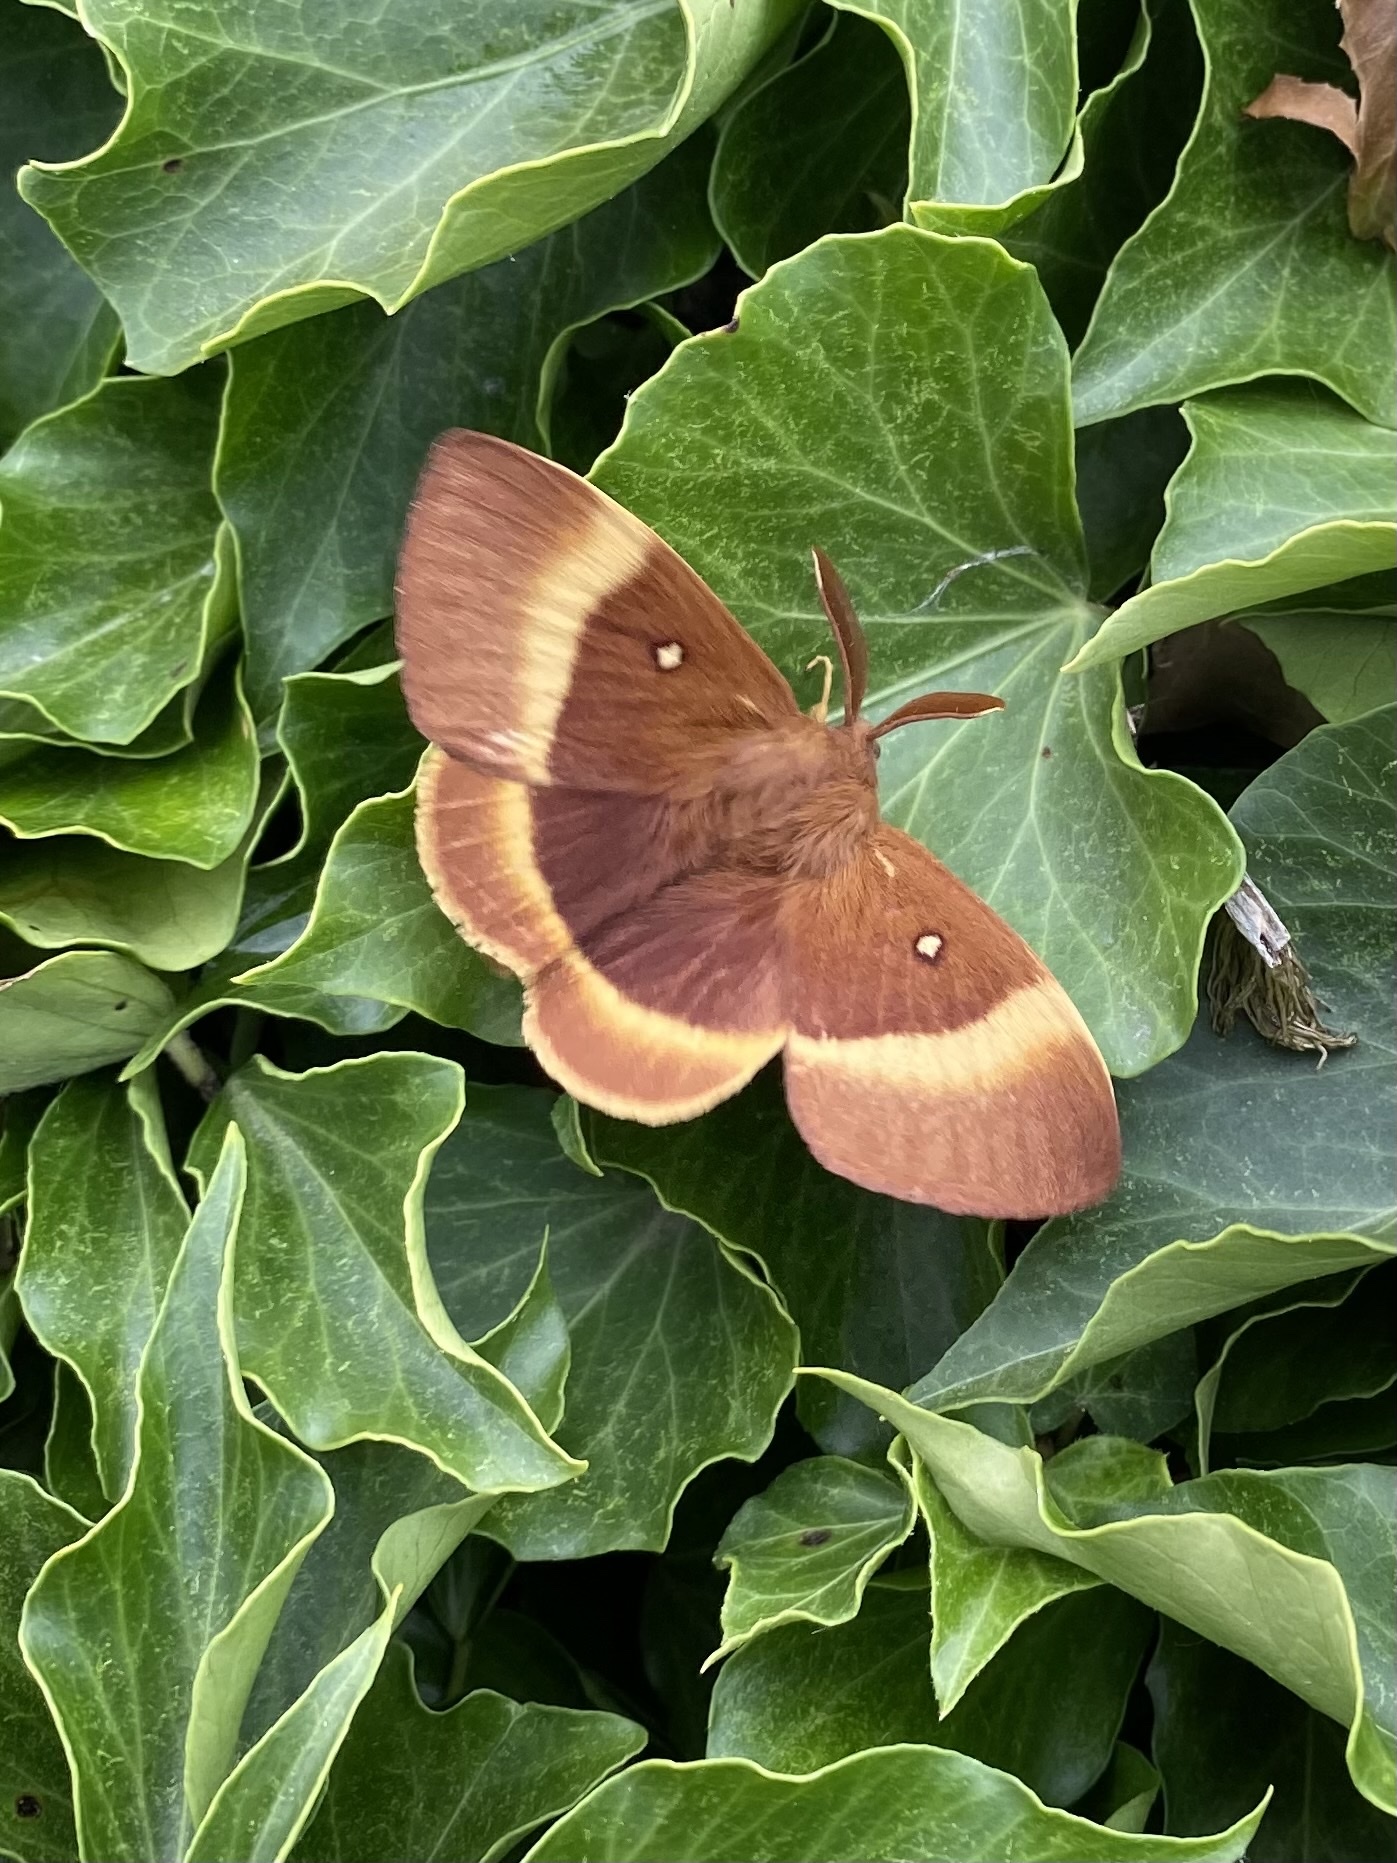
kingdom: Animalia
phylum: Arthropoda
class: Insecta
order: Lepidoptera
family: Lasiocampidae
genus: Lasiocampa
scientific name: Lasiocampa quercus
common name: Oak eggar
